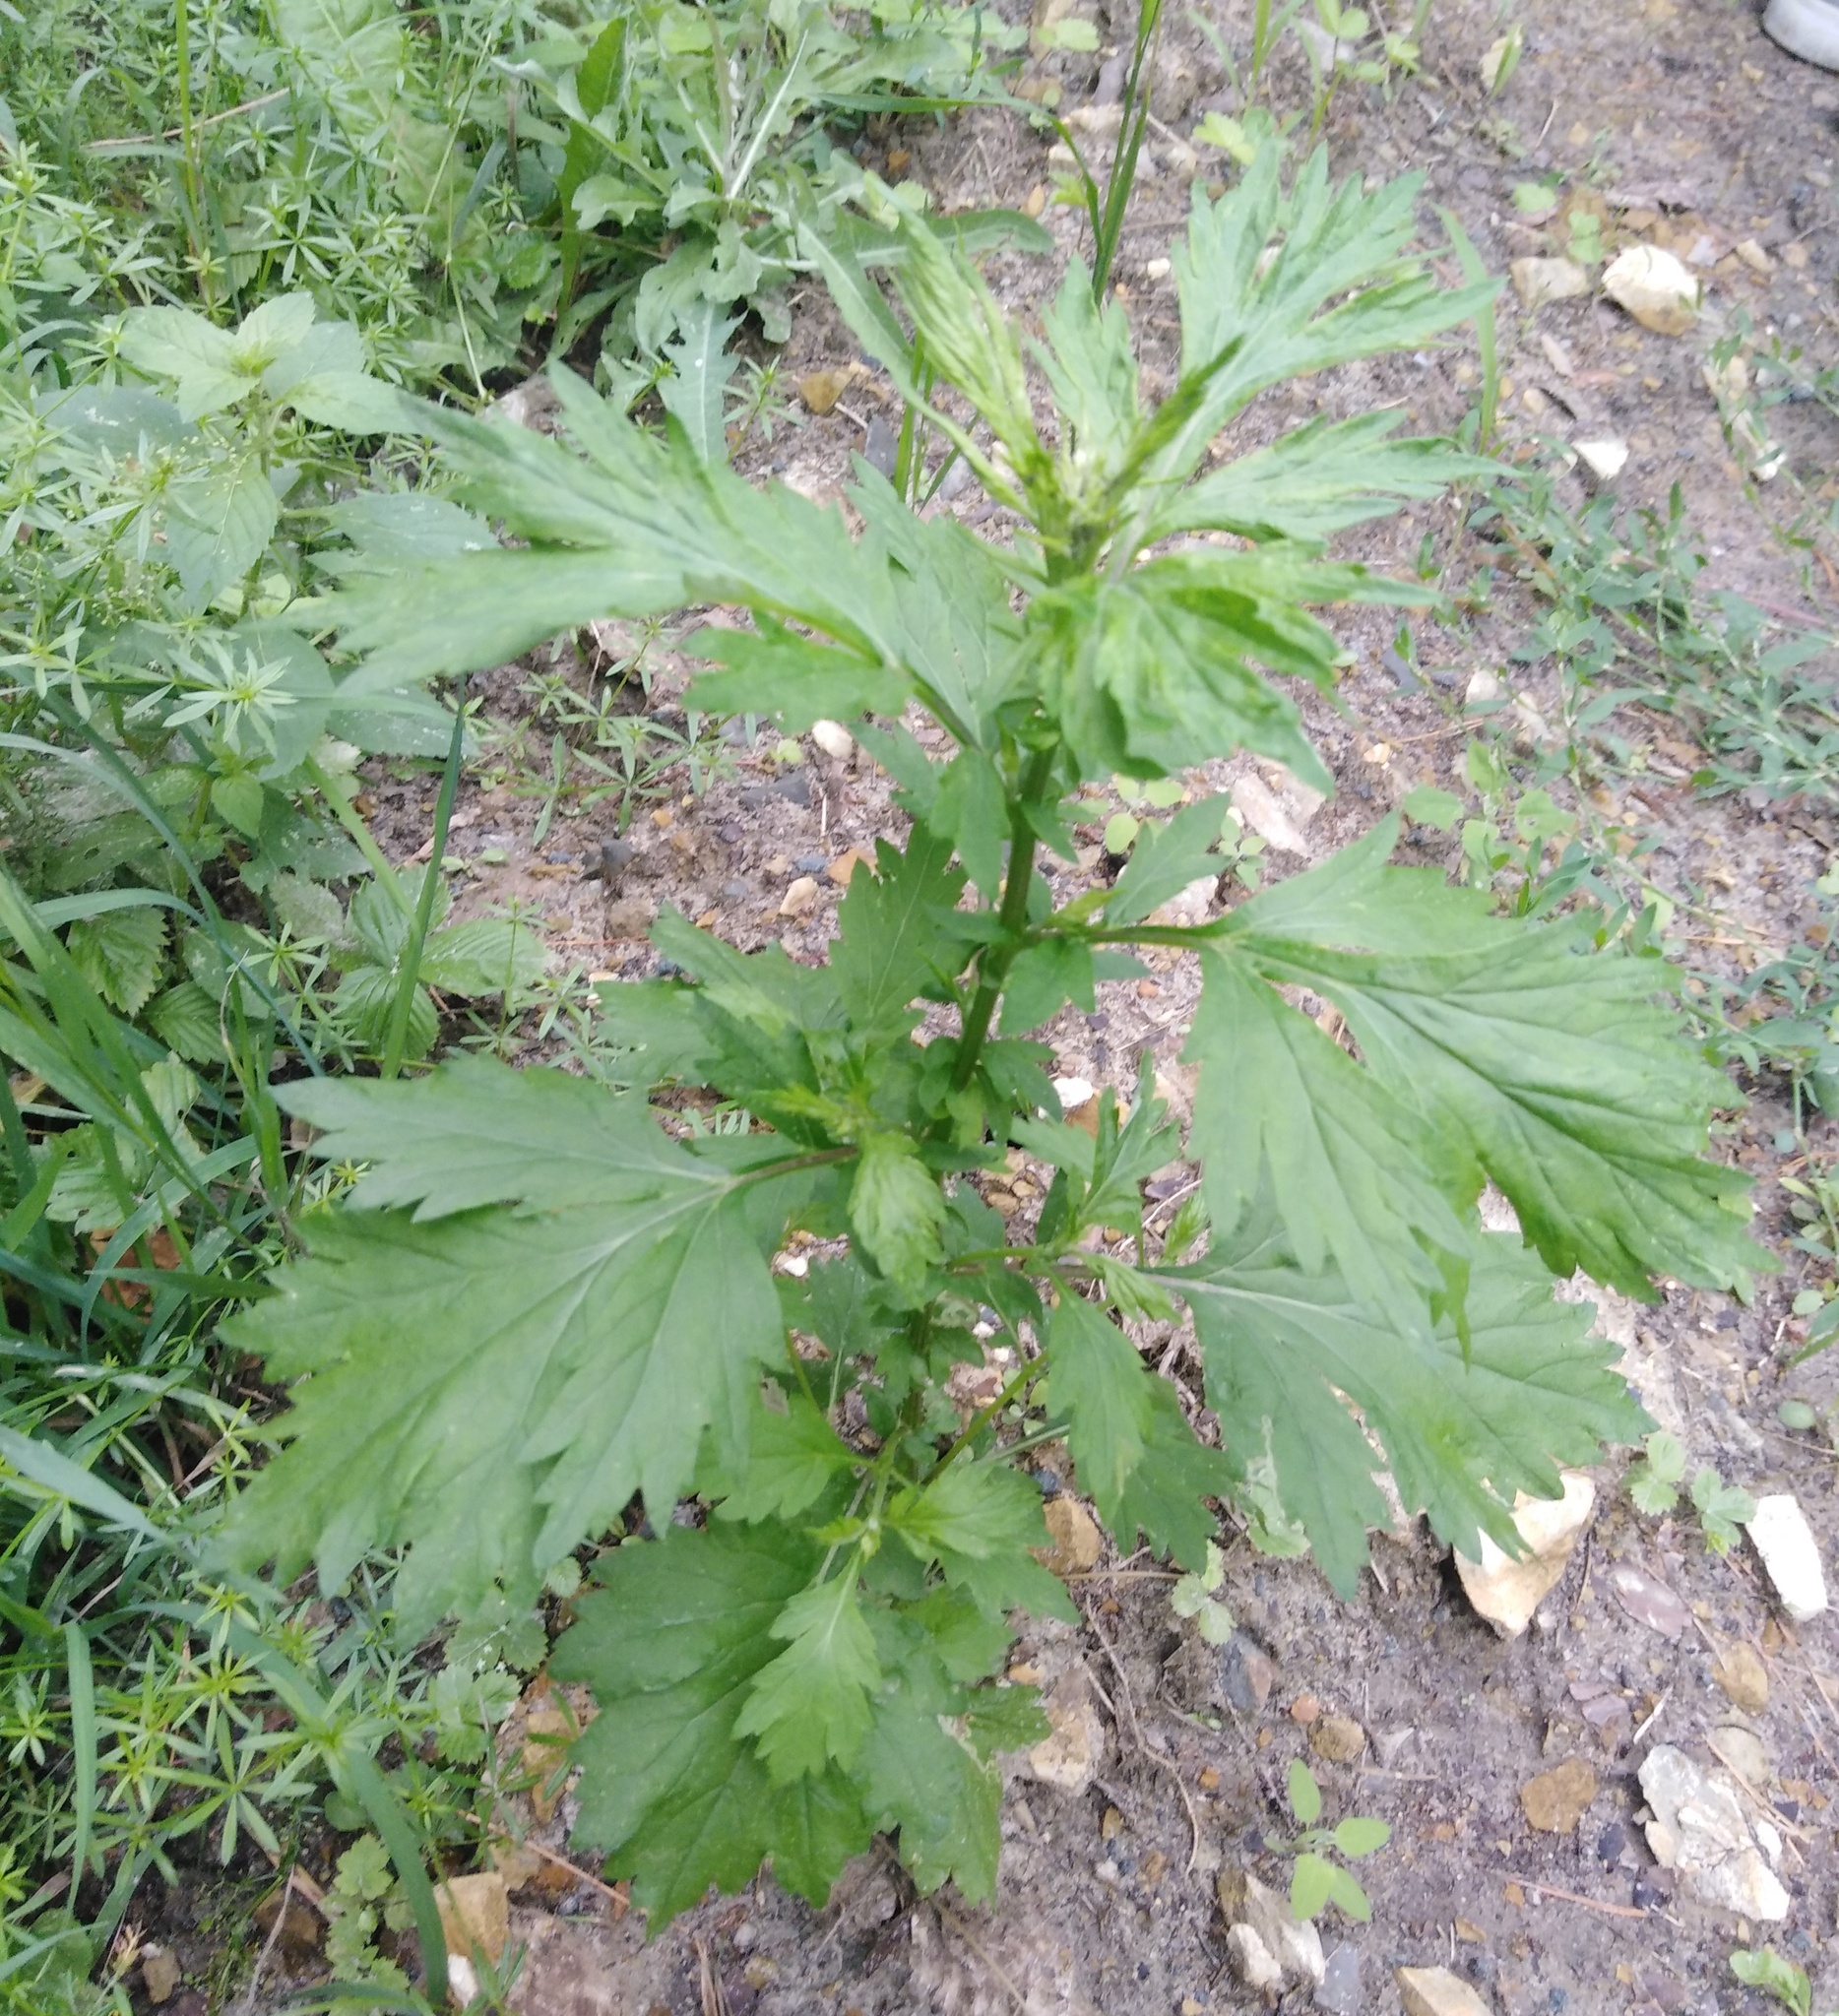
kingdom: Plantae
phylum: Tracheophyta
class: Magnoliopsida
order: Asterales
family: Asteraceae
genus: Artemisia
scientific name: Artemisia vulgaris
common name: Mugwort
